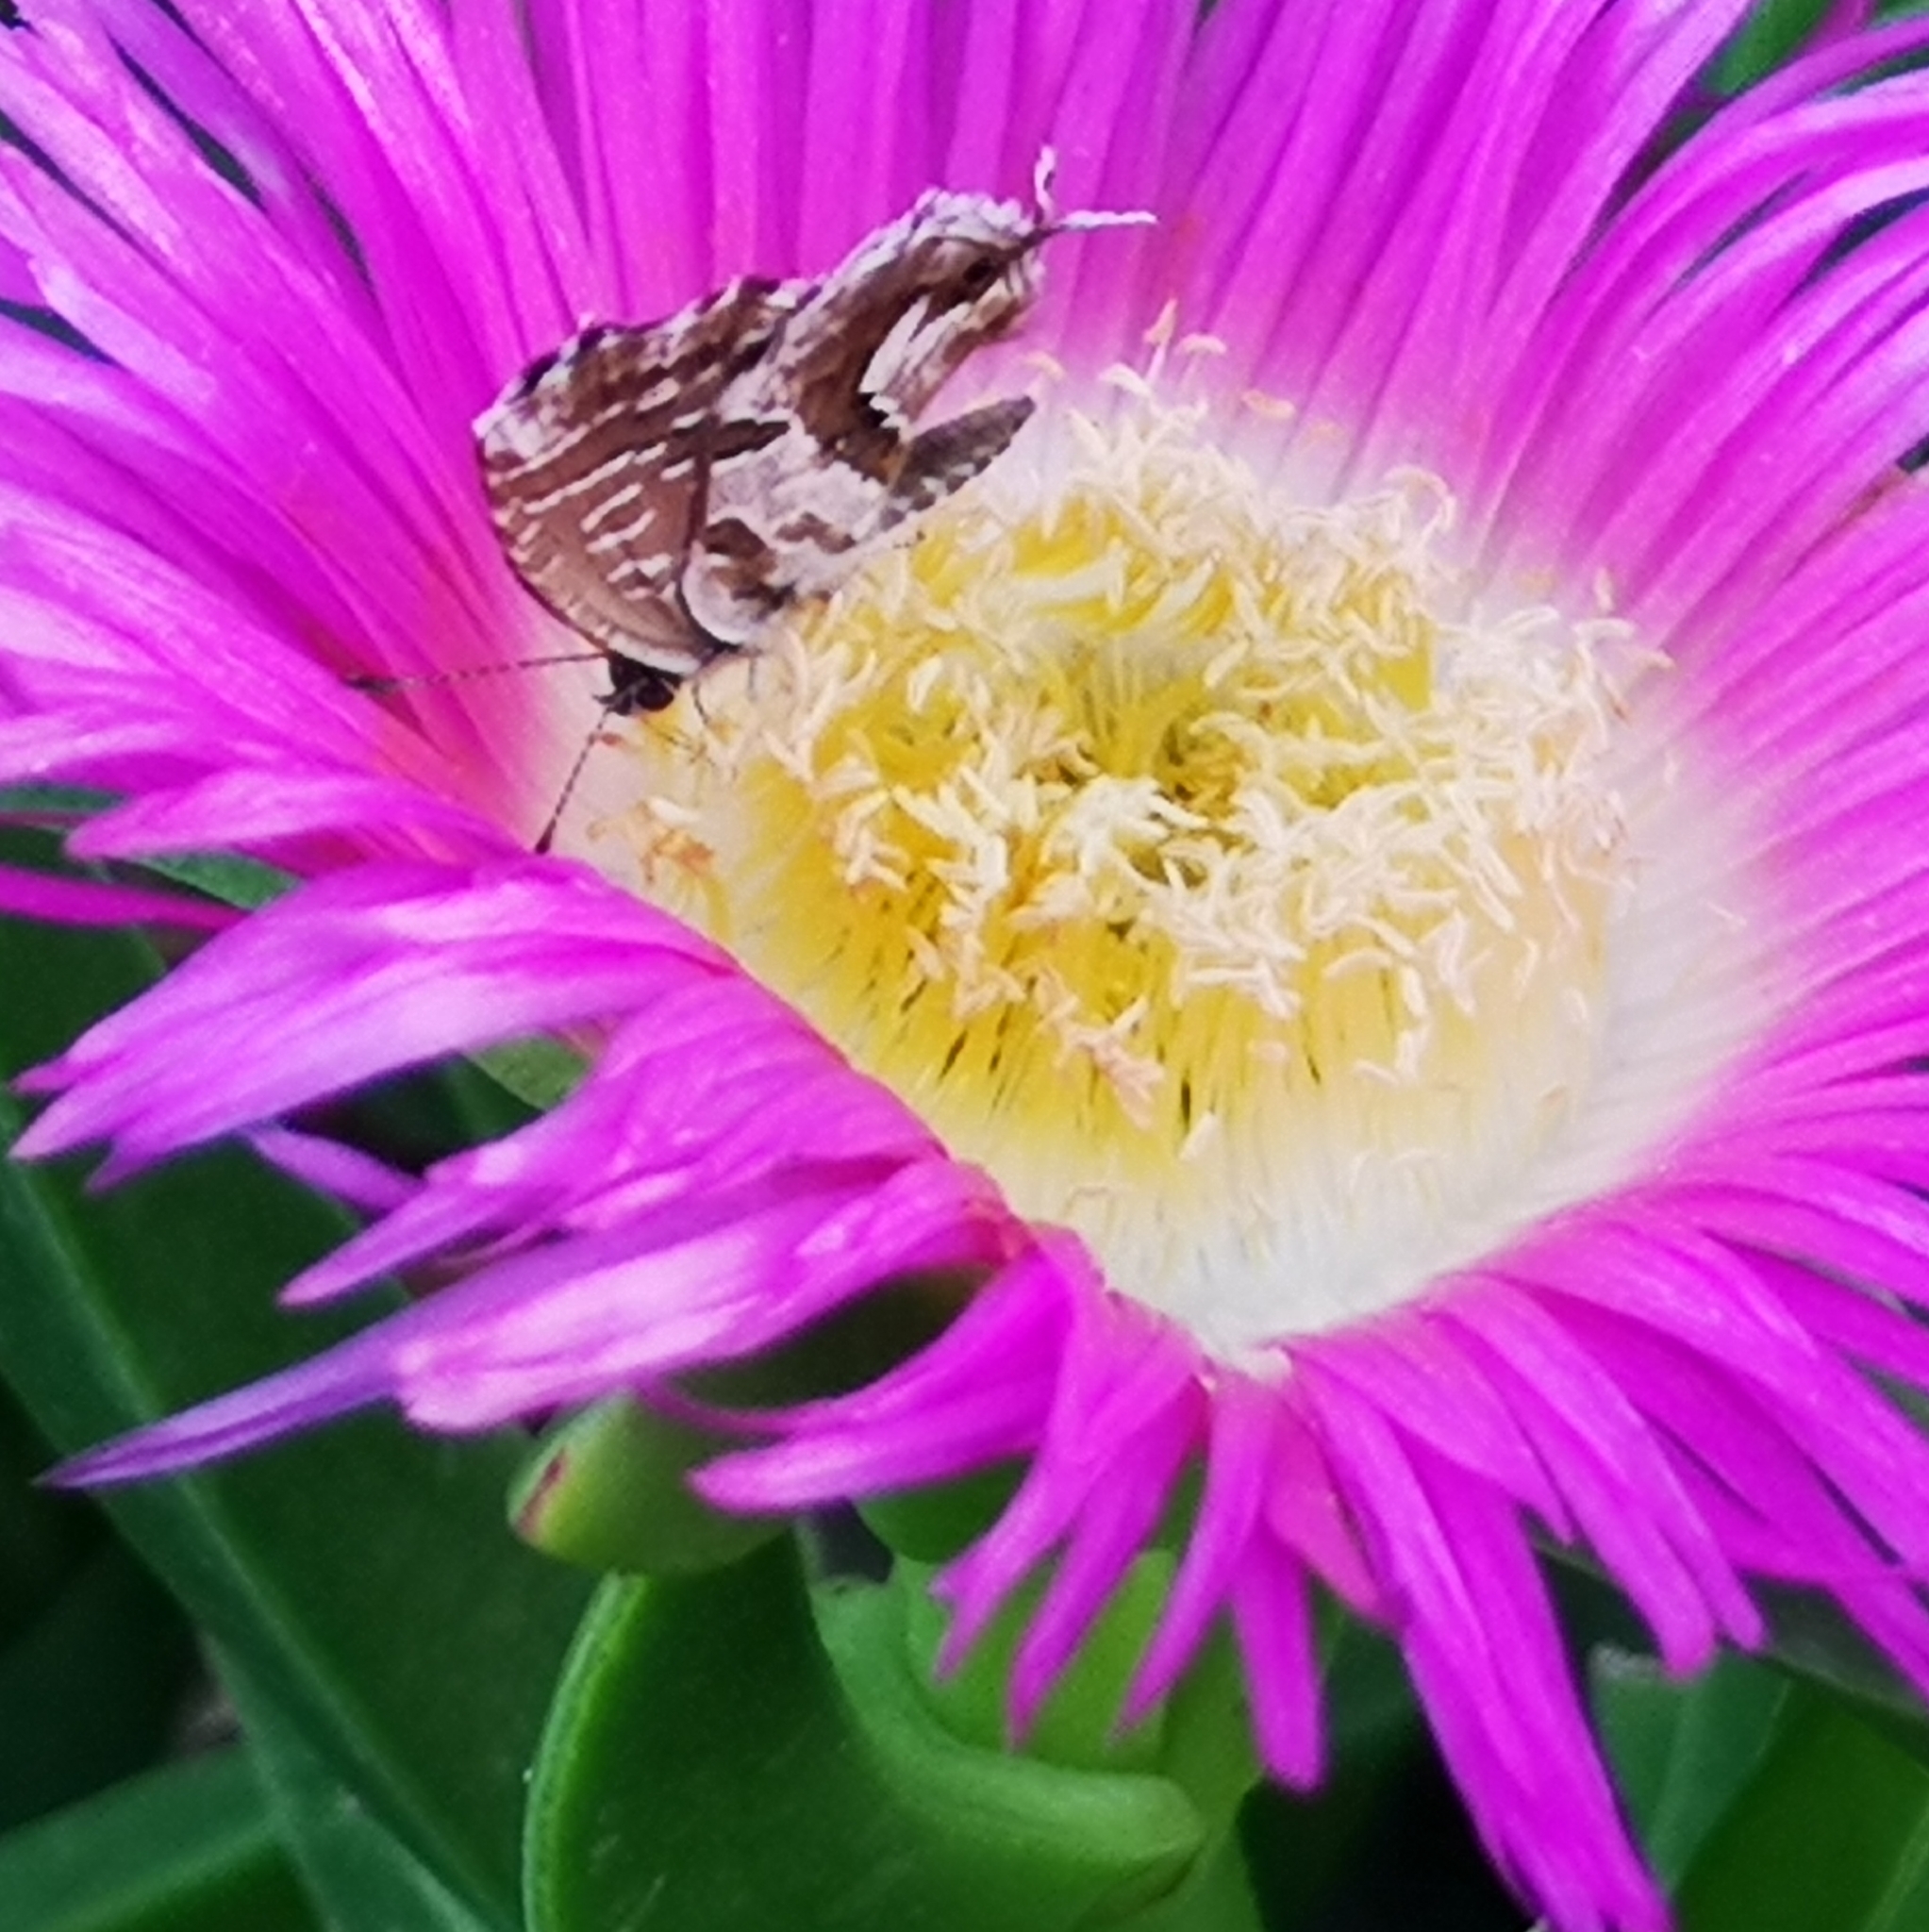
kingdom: Animalia
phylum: Arthropoda
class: Insecta
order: Lepidoptera
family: Lycaenidae
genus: Cacyreus
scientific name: Cacyreus marshalli
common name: Geranium bronze
